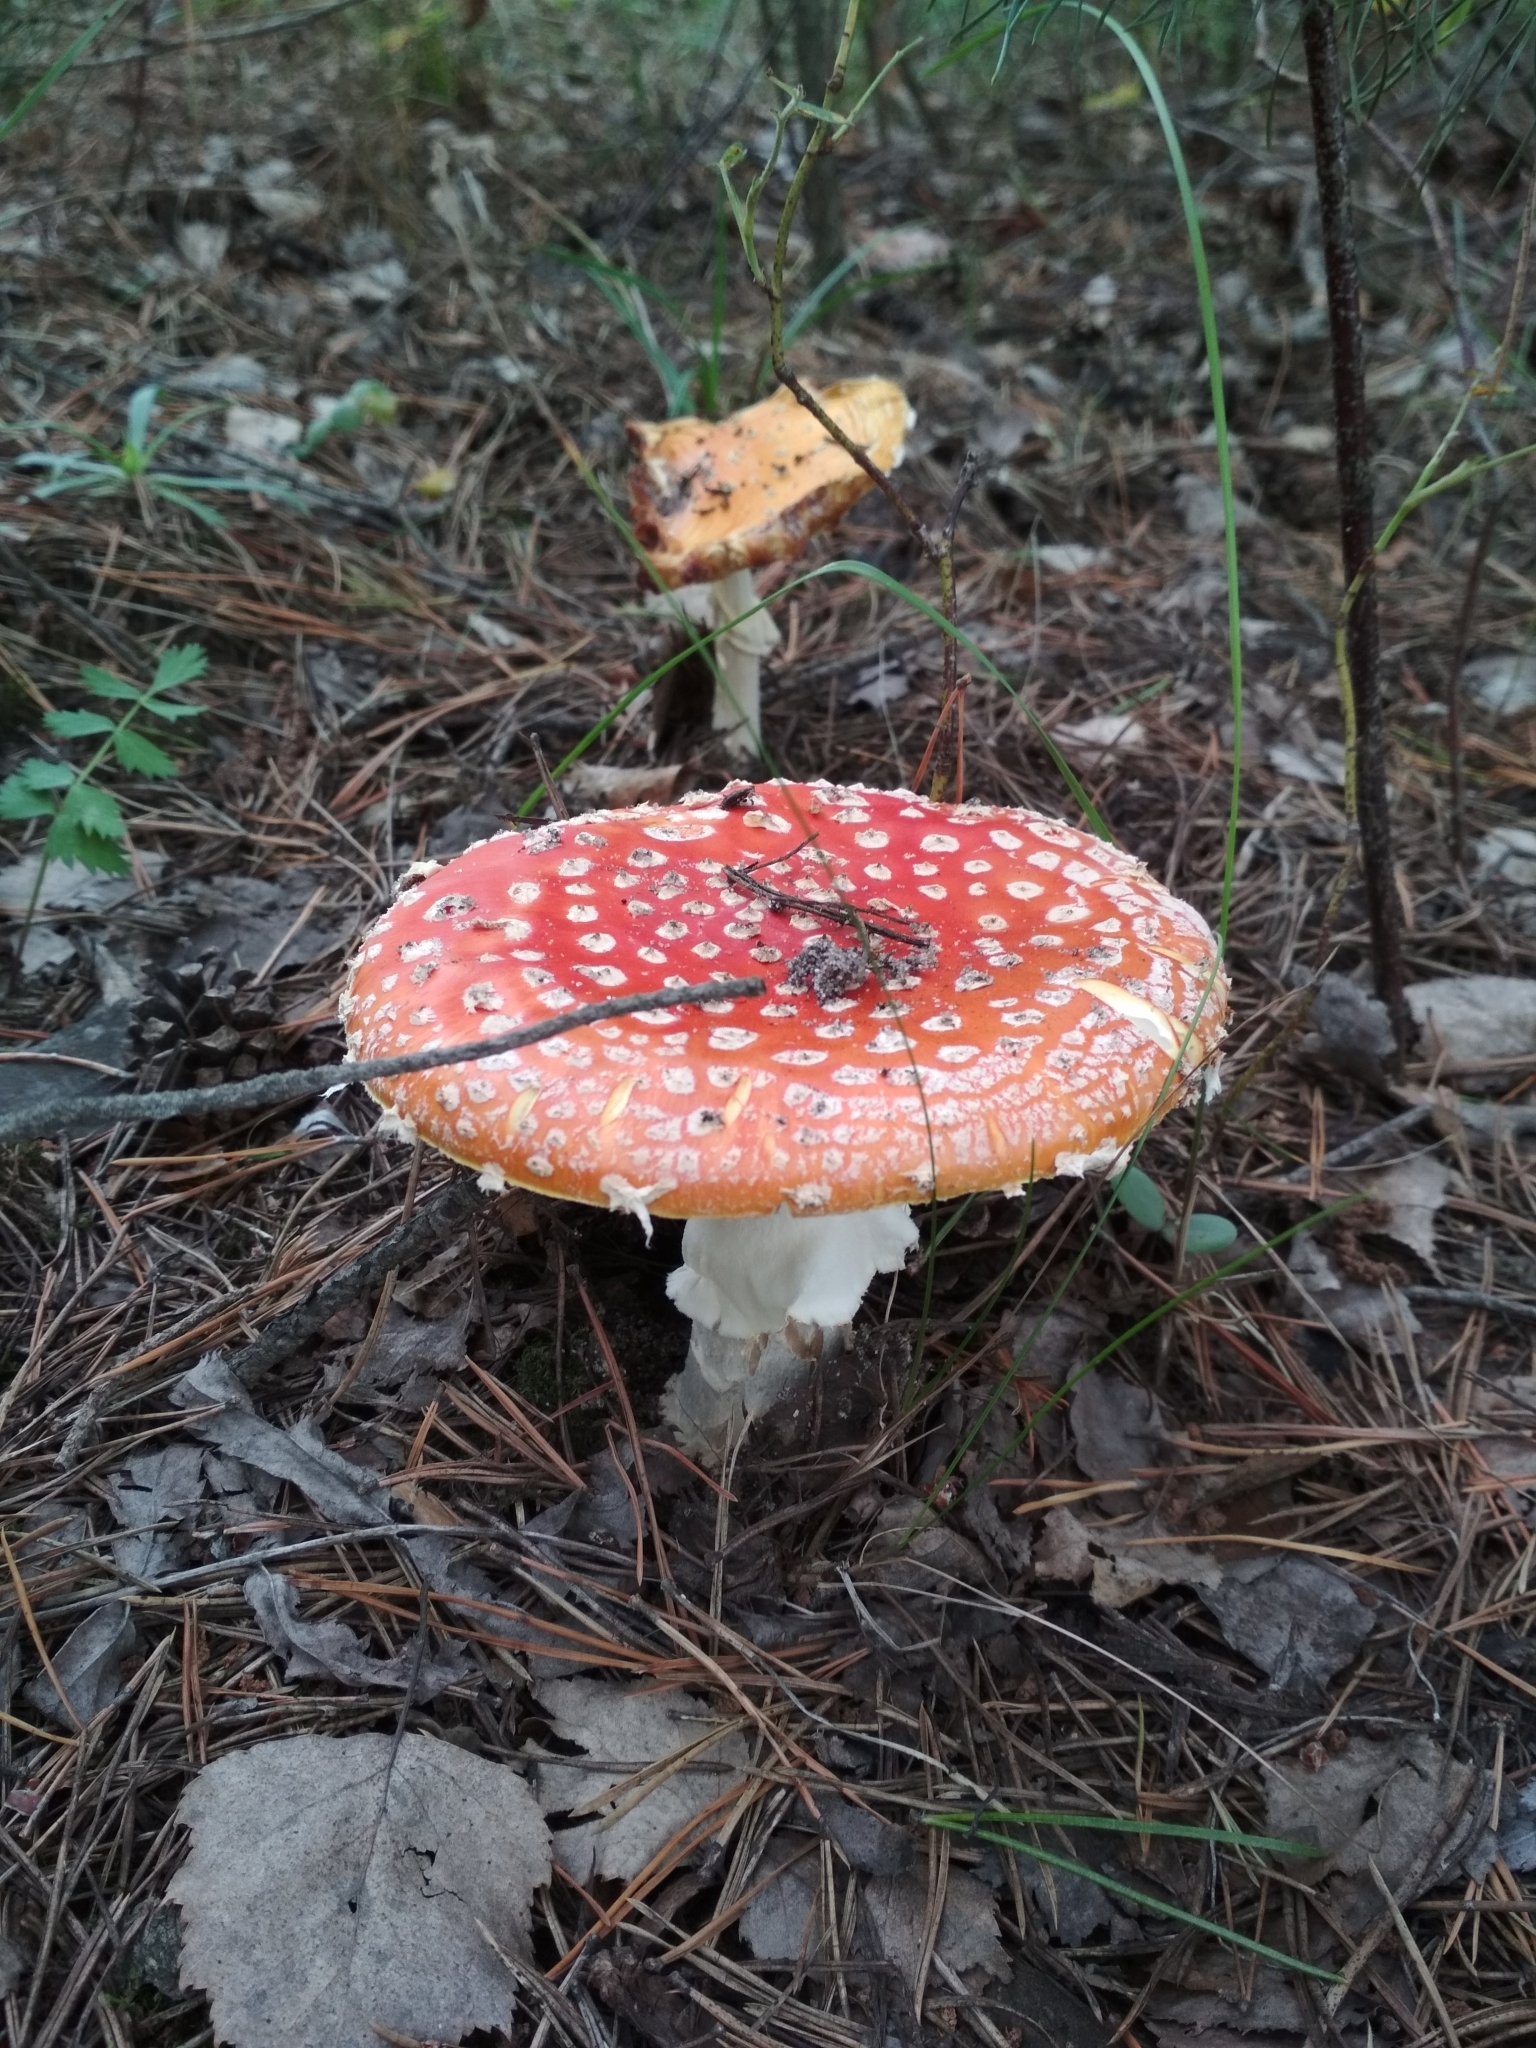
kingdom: Fungi
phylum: Basidiomycota
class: Agaricomycetes
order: Agaricales
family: Amanitaceae
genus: Amanita
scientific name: Amanita muscaria
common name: Fly agaric
